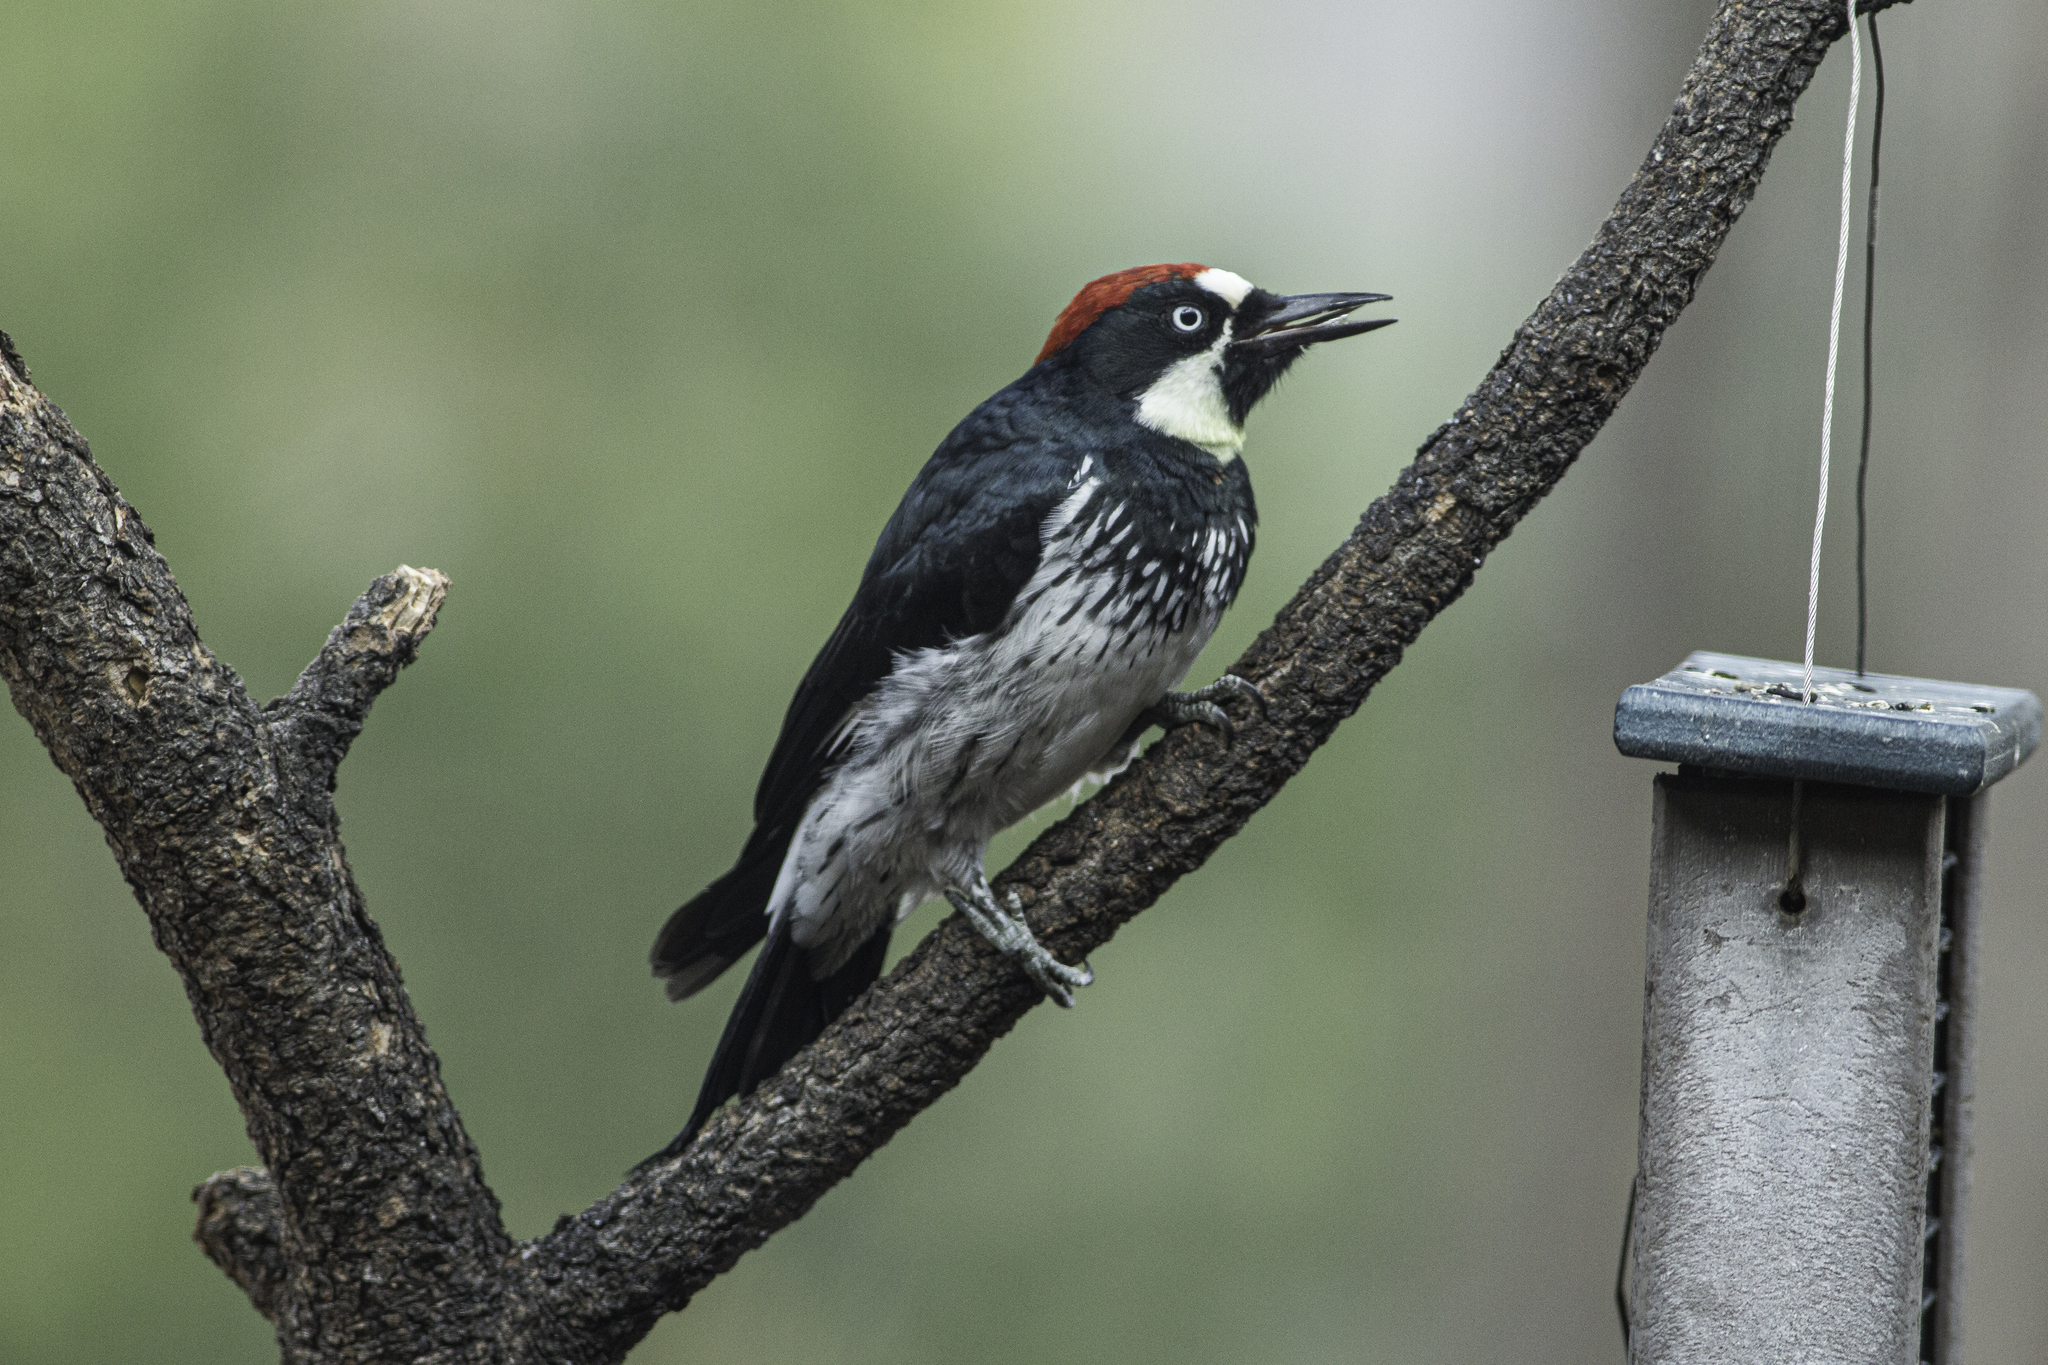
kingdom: Animalia
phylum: Chordata
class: Aves
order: Piciformes
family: Picidae
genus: Melanerpes
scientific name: Melanerpes formicivorus
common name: Acorn woodpecker
